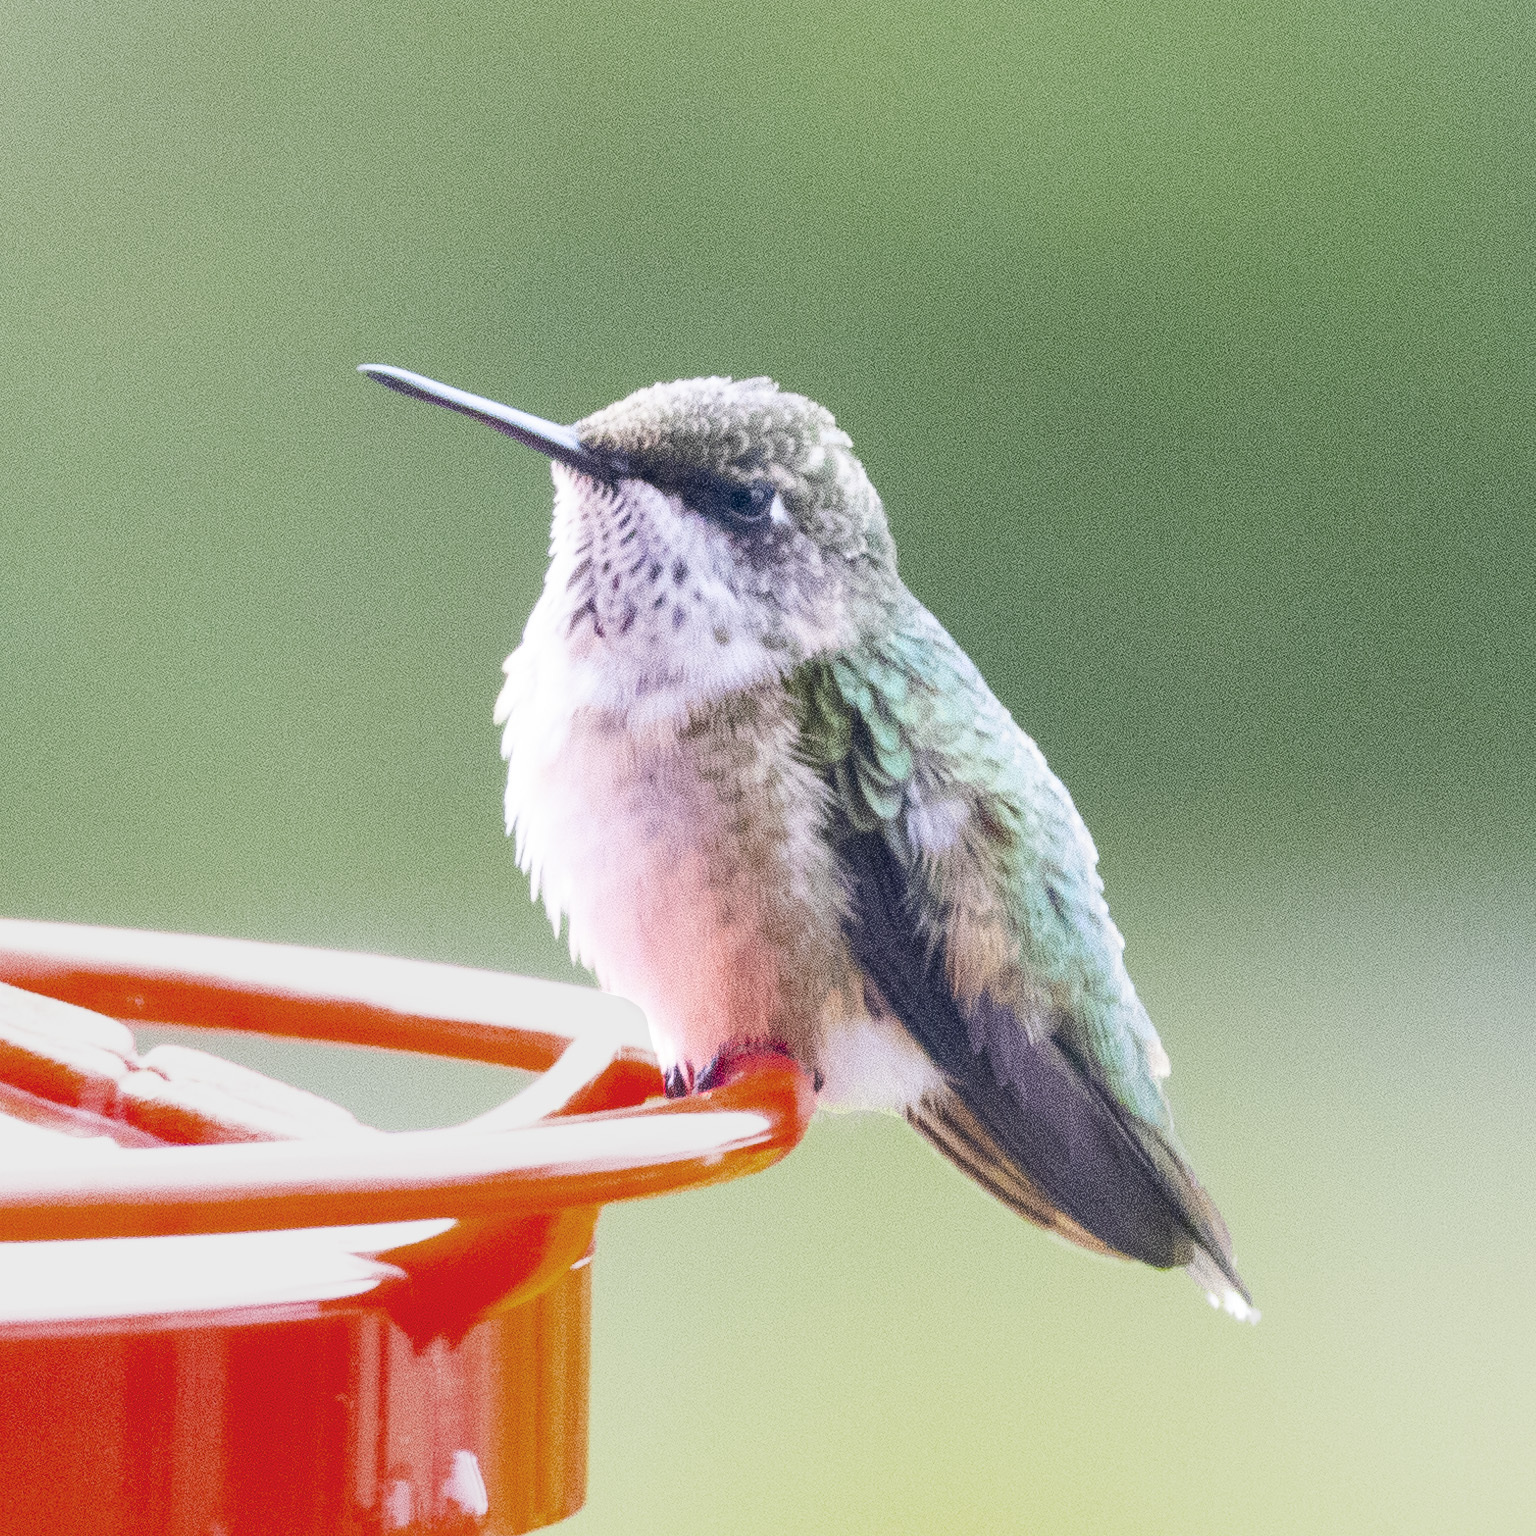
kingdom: Animalia
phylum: Chordata
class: Aves
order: Apodiformes
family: Trochilidae
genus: Archilochus
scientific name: Archilochus colubris
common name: Ruby-throated hummingbird
